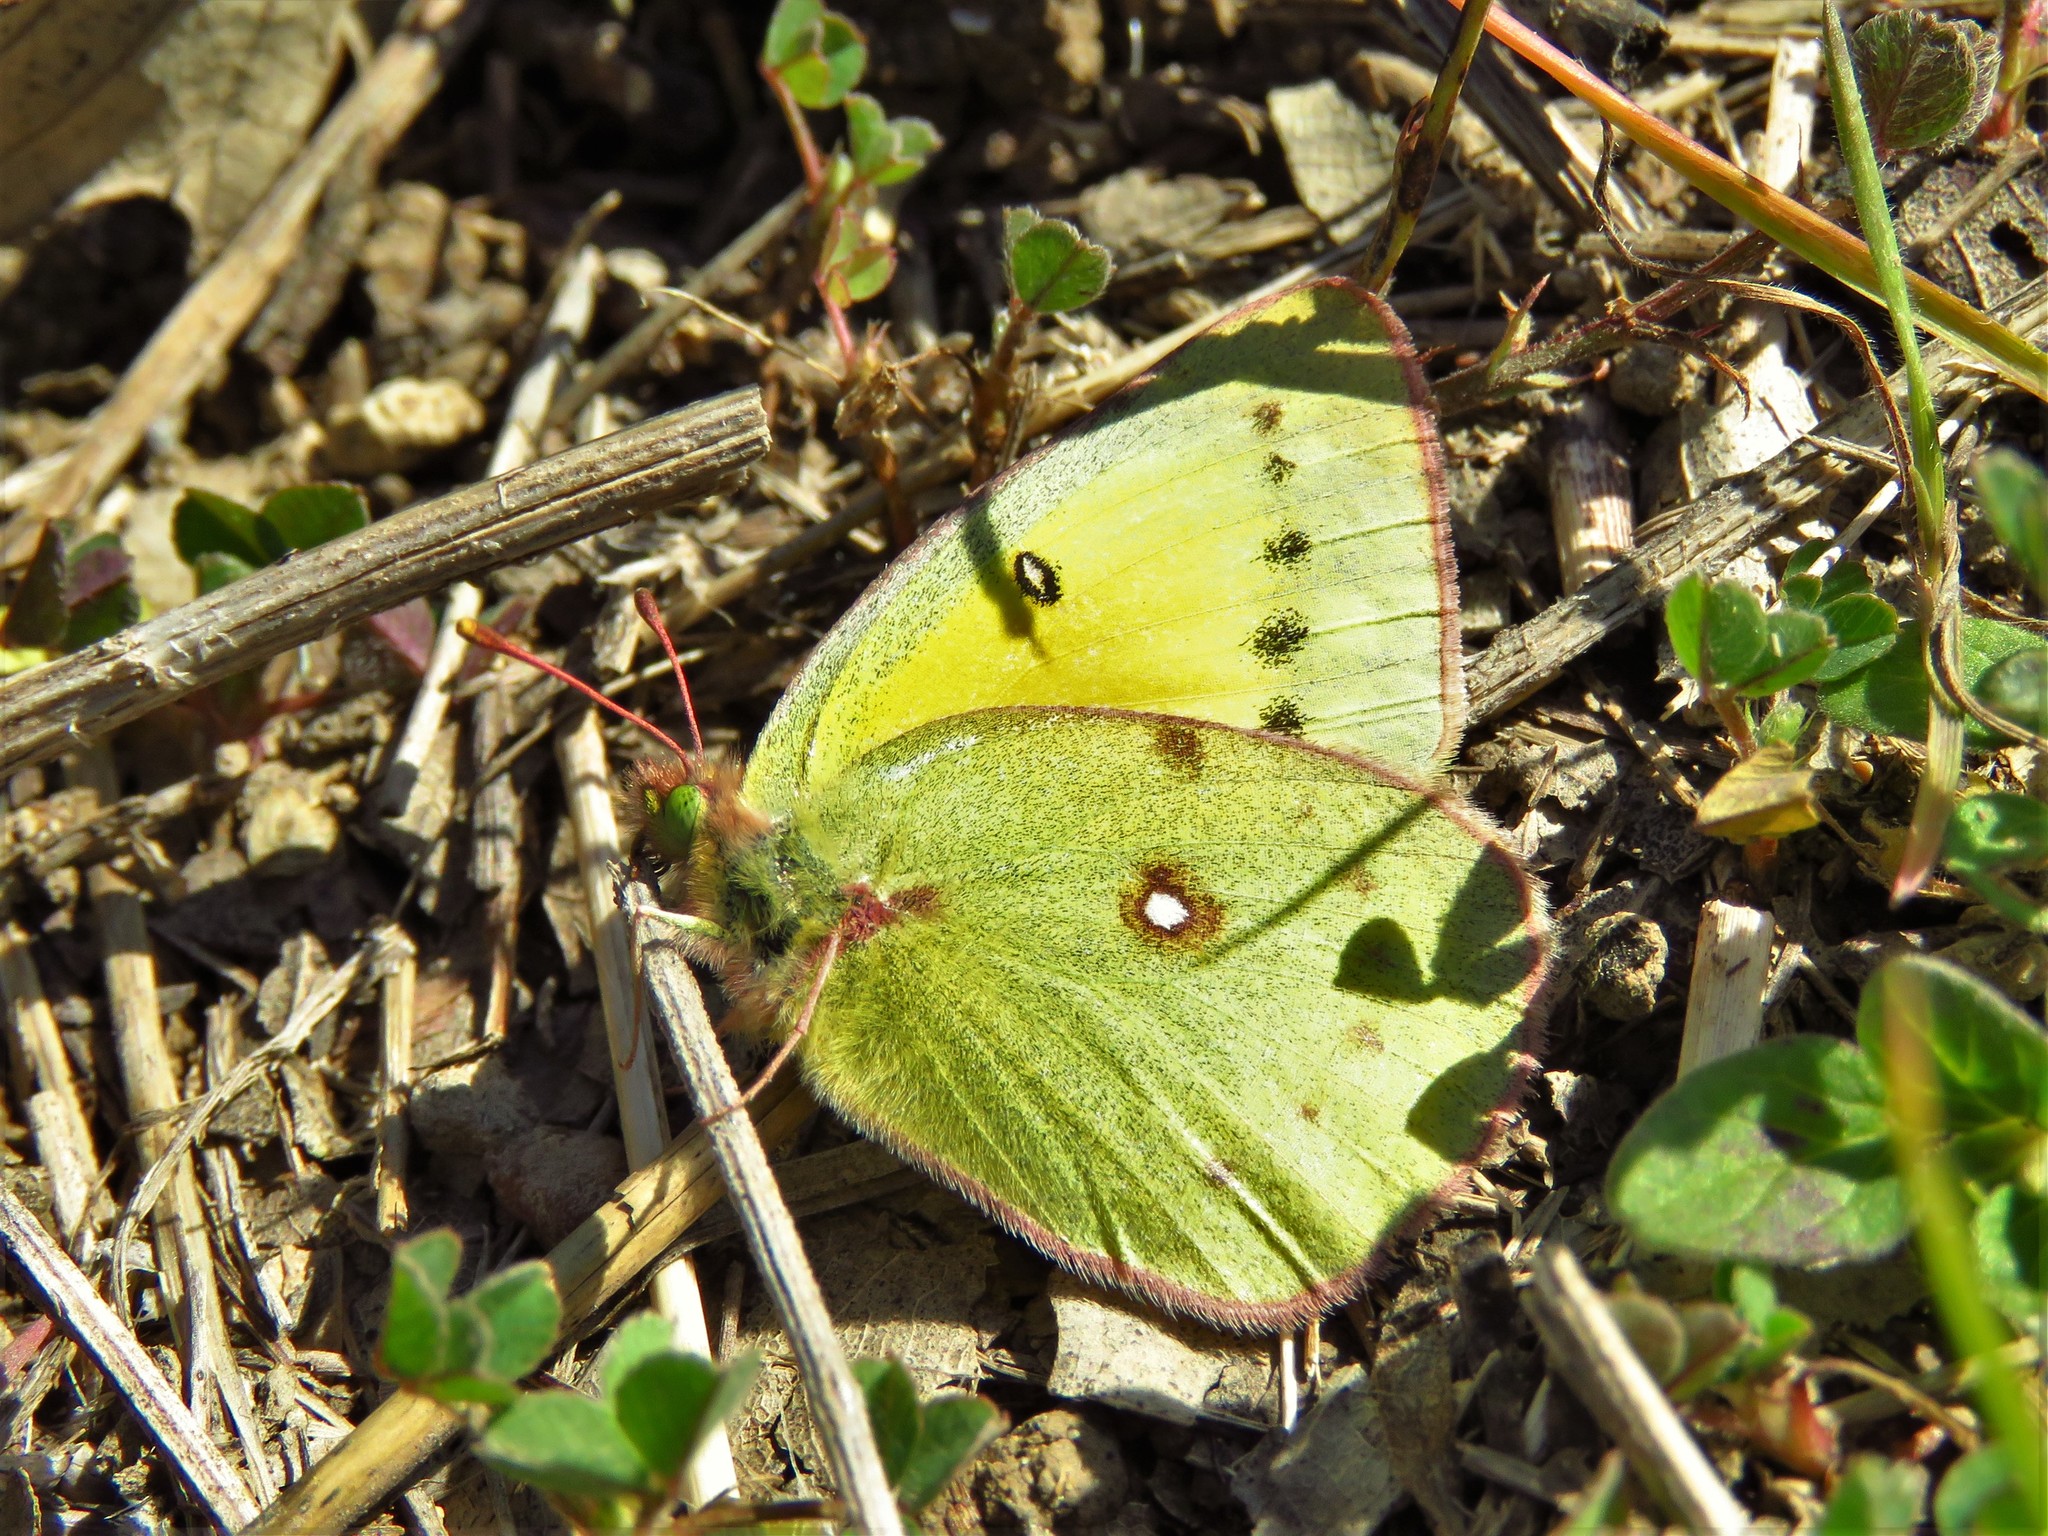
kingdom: Animalia
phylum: Arthropoda
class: Insecta
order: Lepidoptera
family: Pieridae
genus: Colias
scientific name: Colias eurytheme
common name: Alfalfa butterfly
